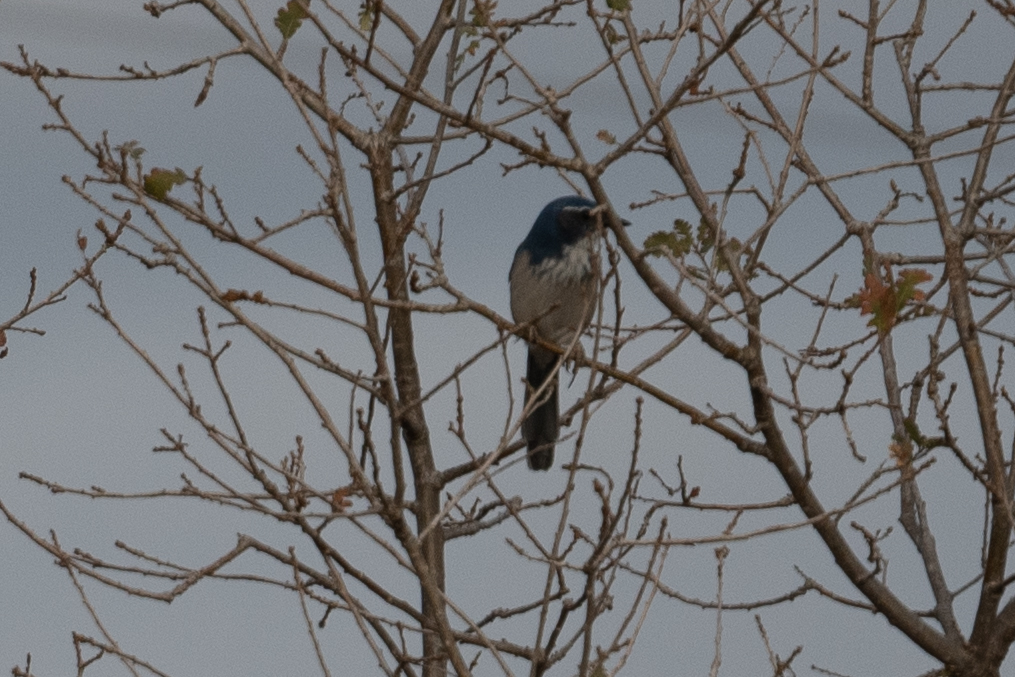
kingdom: Animalia
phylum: Chordata
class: Aves
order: Passeriformes
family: Corvidae
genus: Aphelocoma
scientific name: Aphelocoma californica
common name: California scrub-jay
